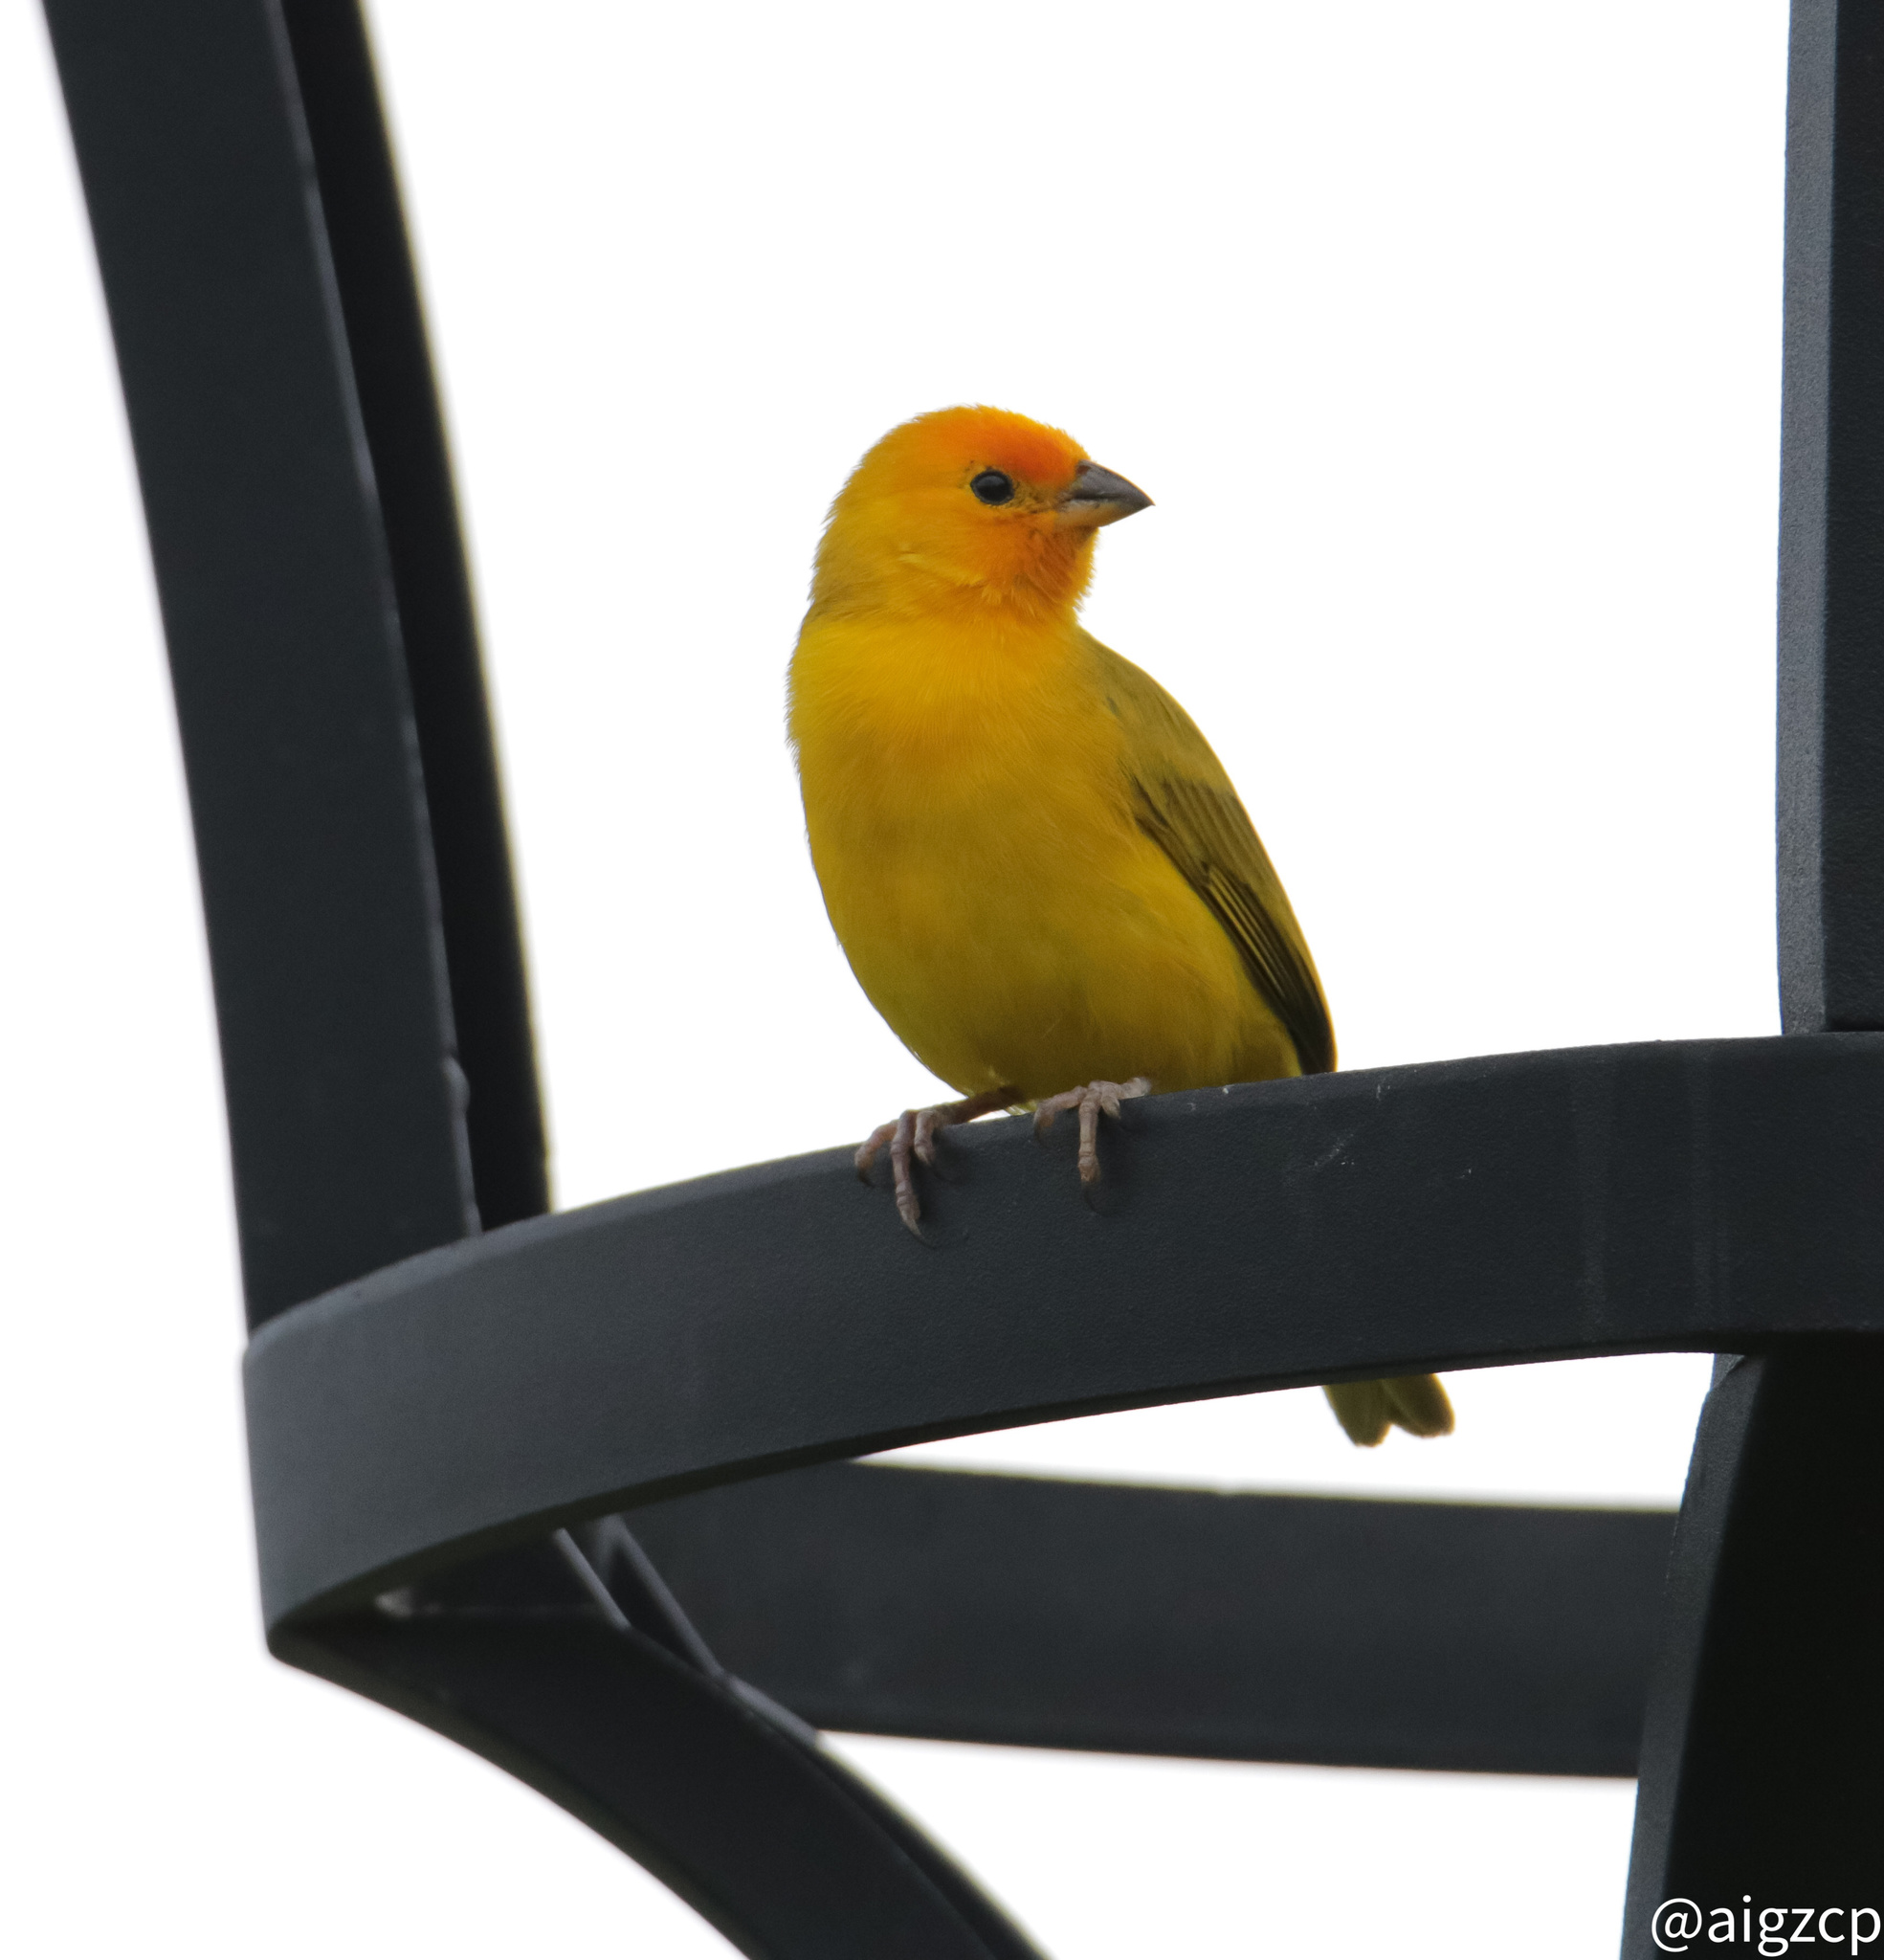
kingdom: Animalia
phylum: Chordata
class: Aves
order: Passeriformes
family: Thraupidae
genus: Sicalis
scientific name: Sicalis flaveola
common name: Saffron finch
